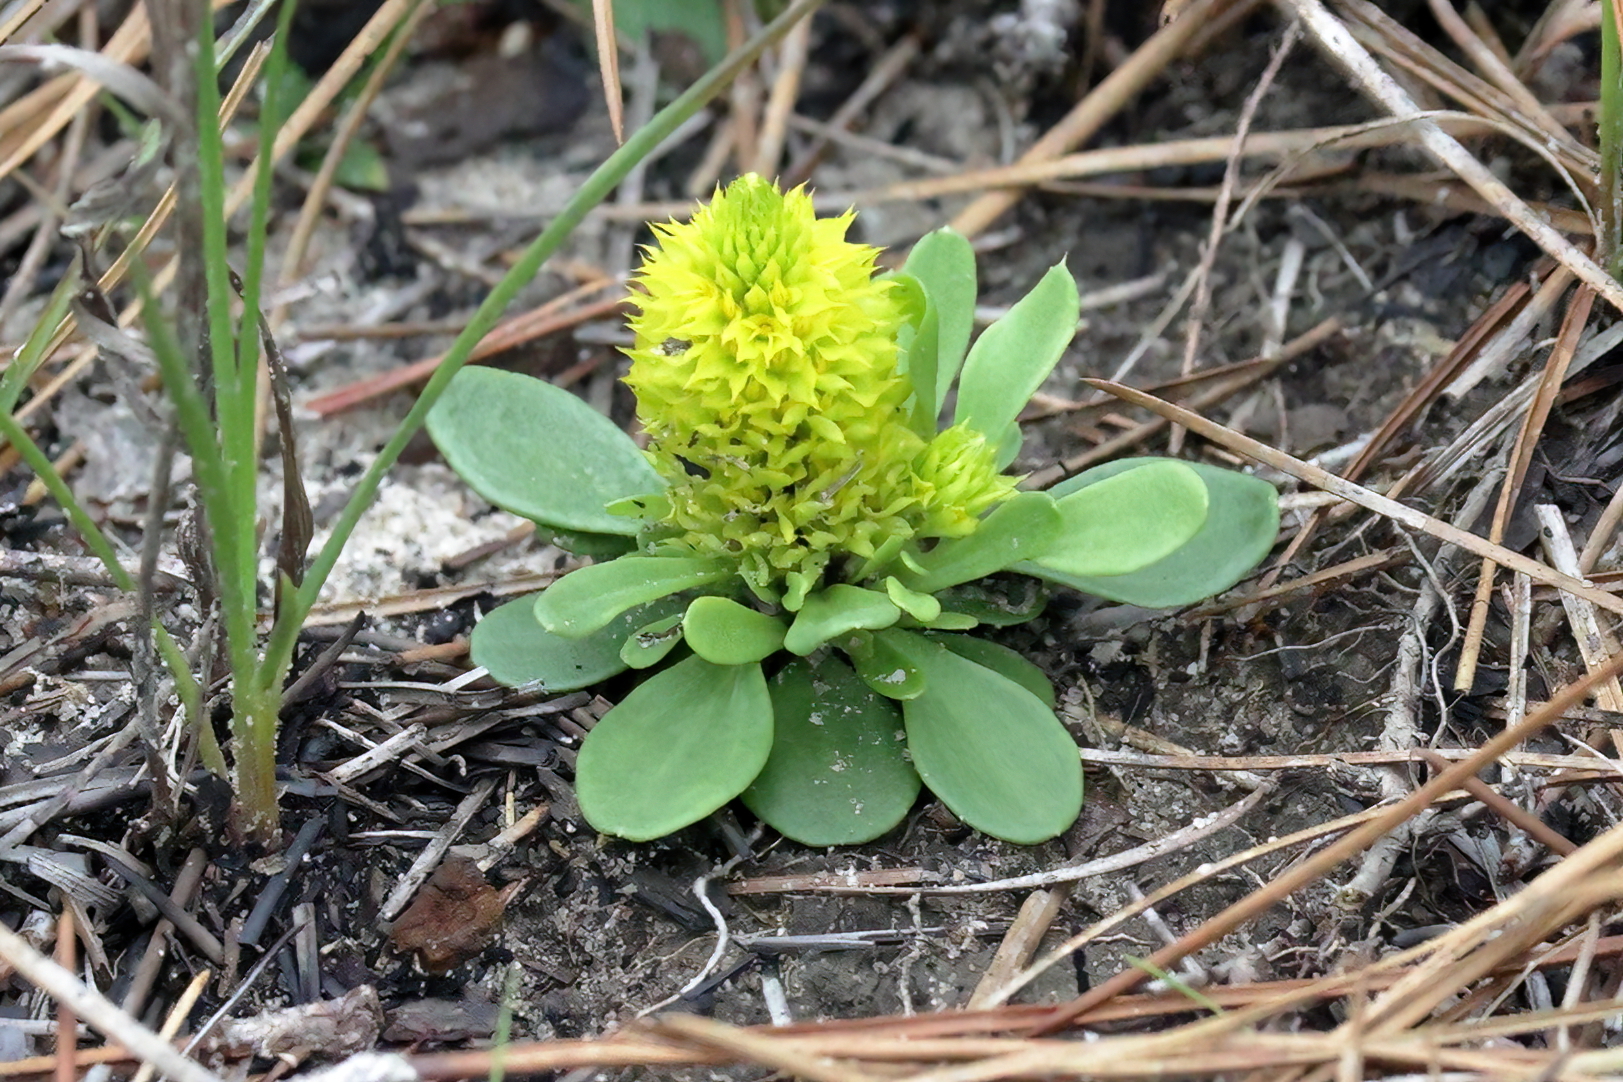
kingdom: Plantae
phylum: Tracheophyta
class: Magnoliopsida
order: Fabales
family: Polygalaceae
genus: Polygala
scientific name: Polygala nana
